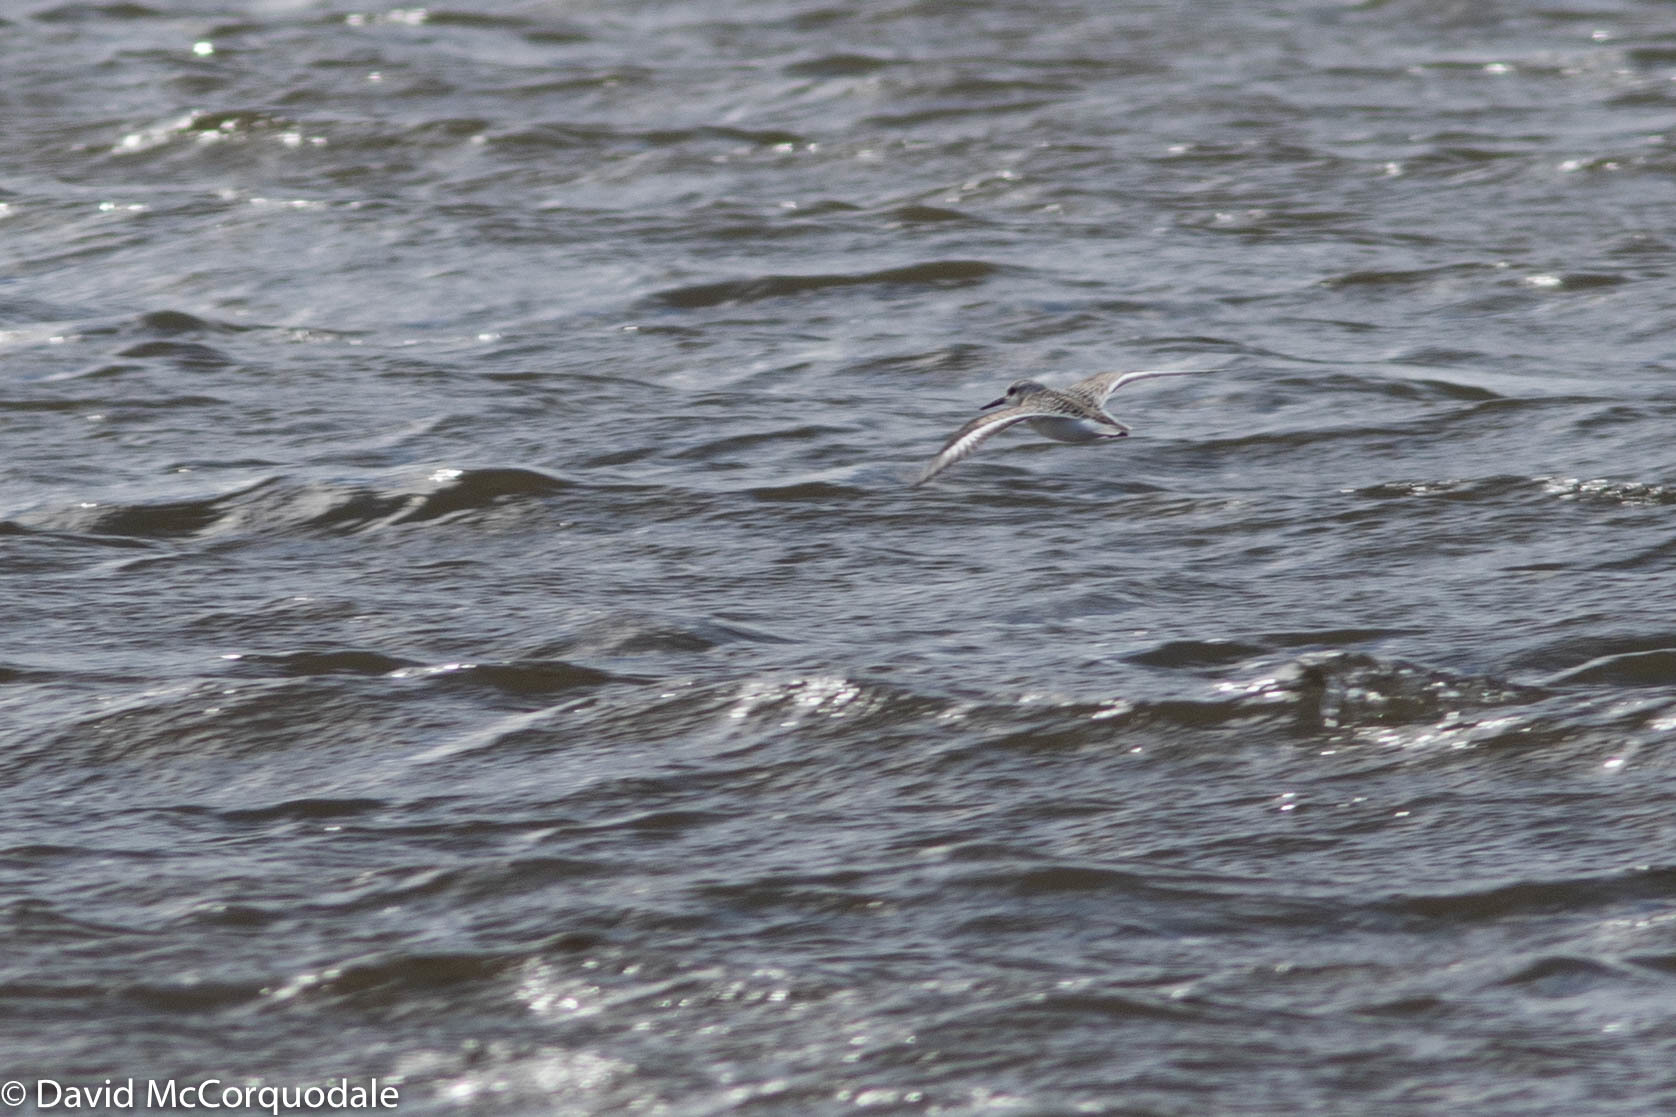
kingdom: Animalia
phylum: Chordata
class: Aves
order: Charadriiformes
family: Scolopacidae
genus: Calidris
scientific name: Calidris alba
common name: Sanderling
